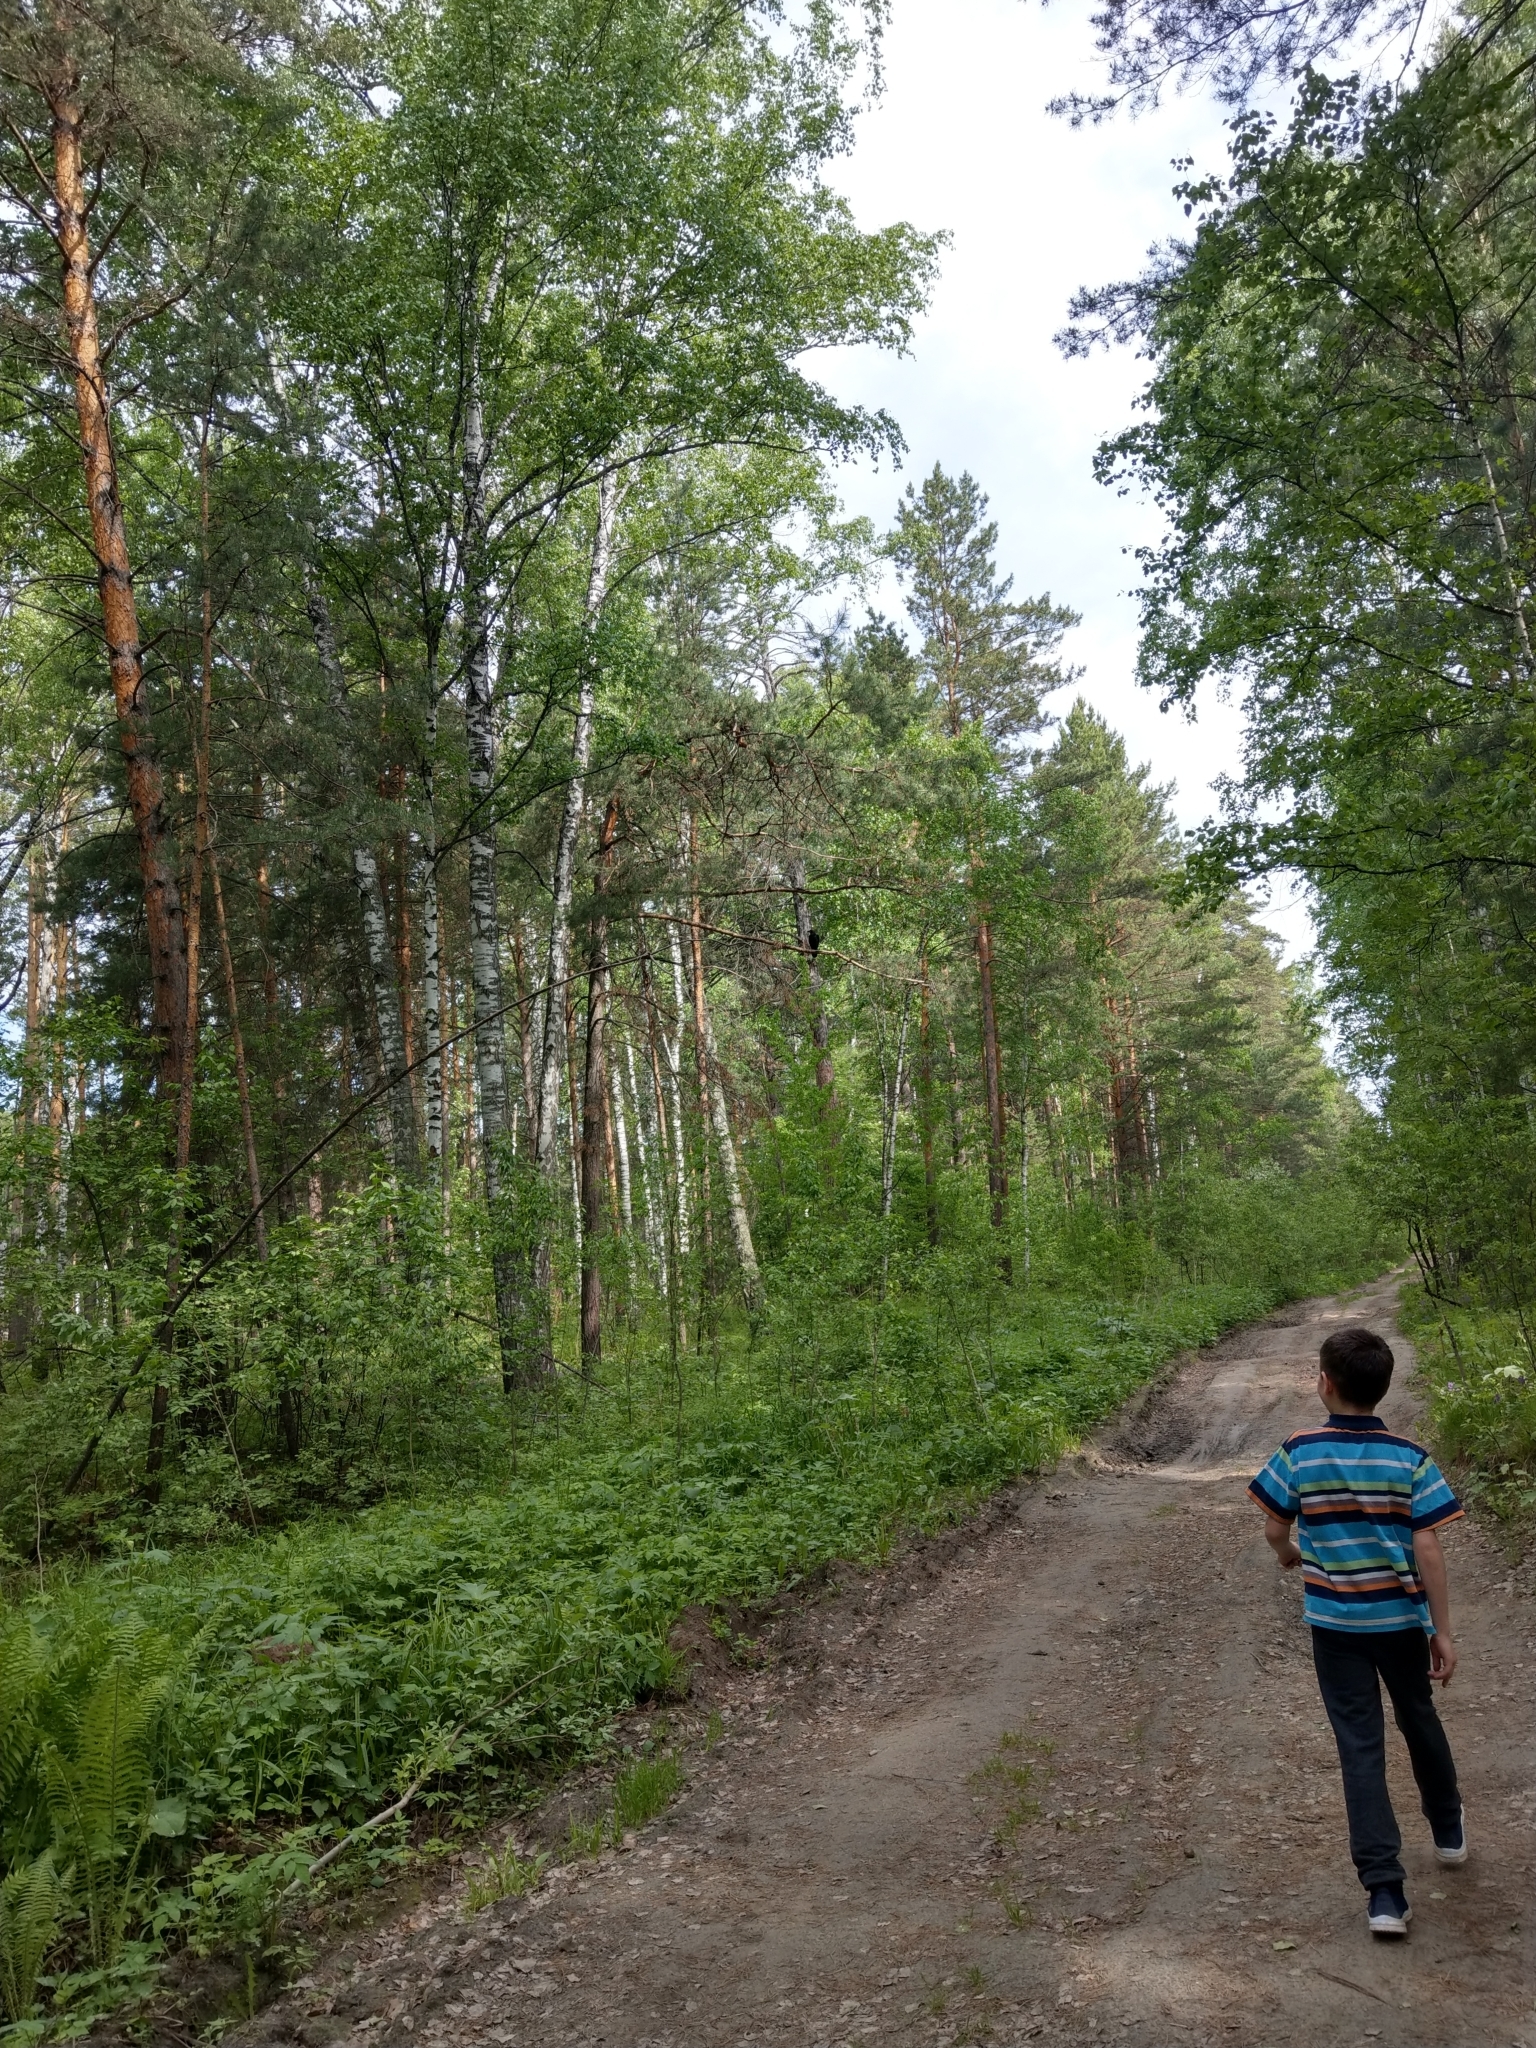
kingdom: Animalia
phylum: Chordata
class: Aves
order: Passeriformes
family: Corvidae
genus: Corvus
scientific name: Corvus corax
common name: Common raven
